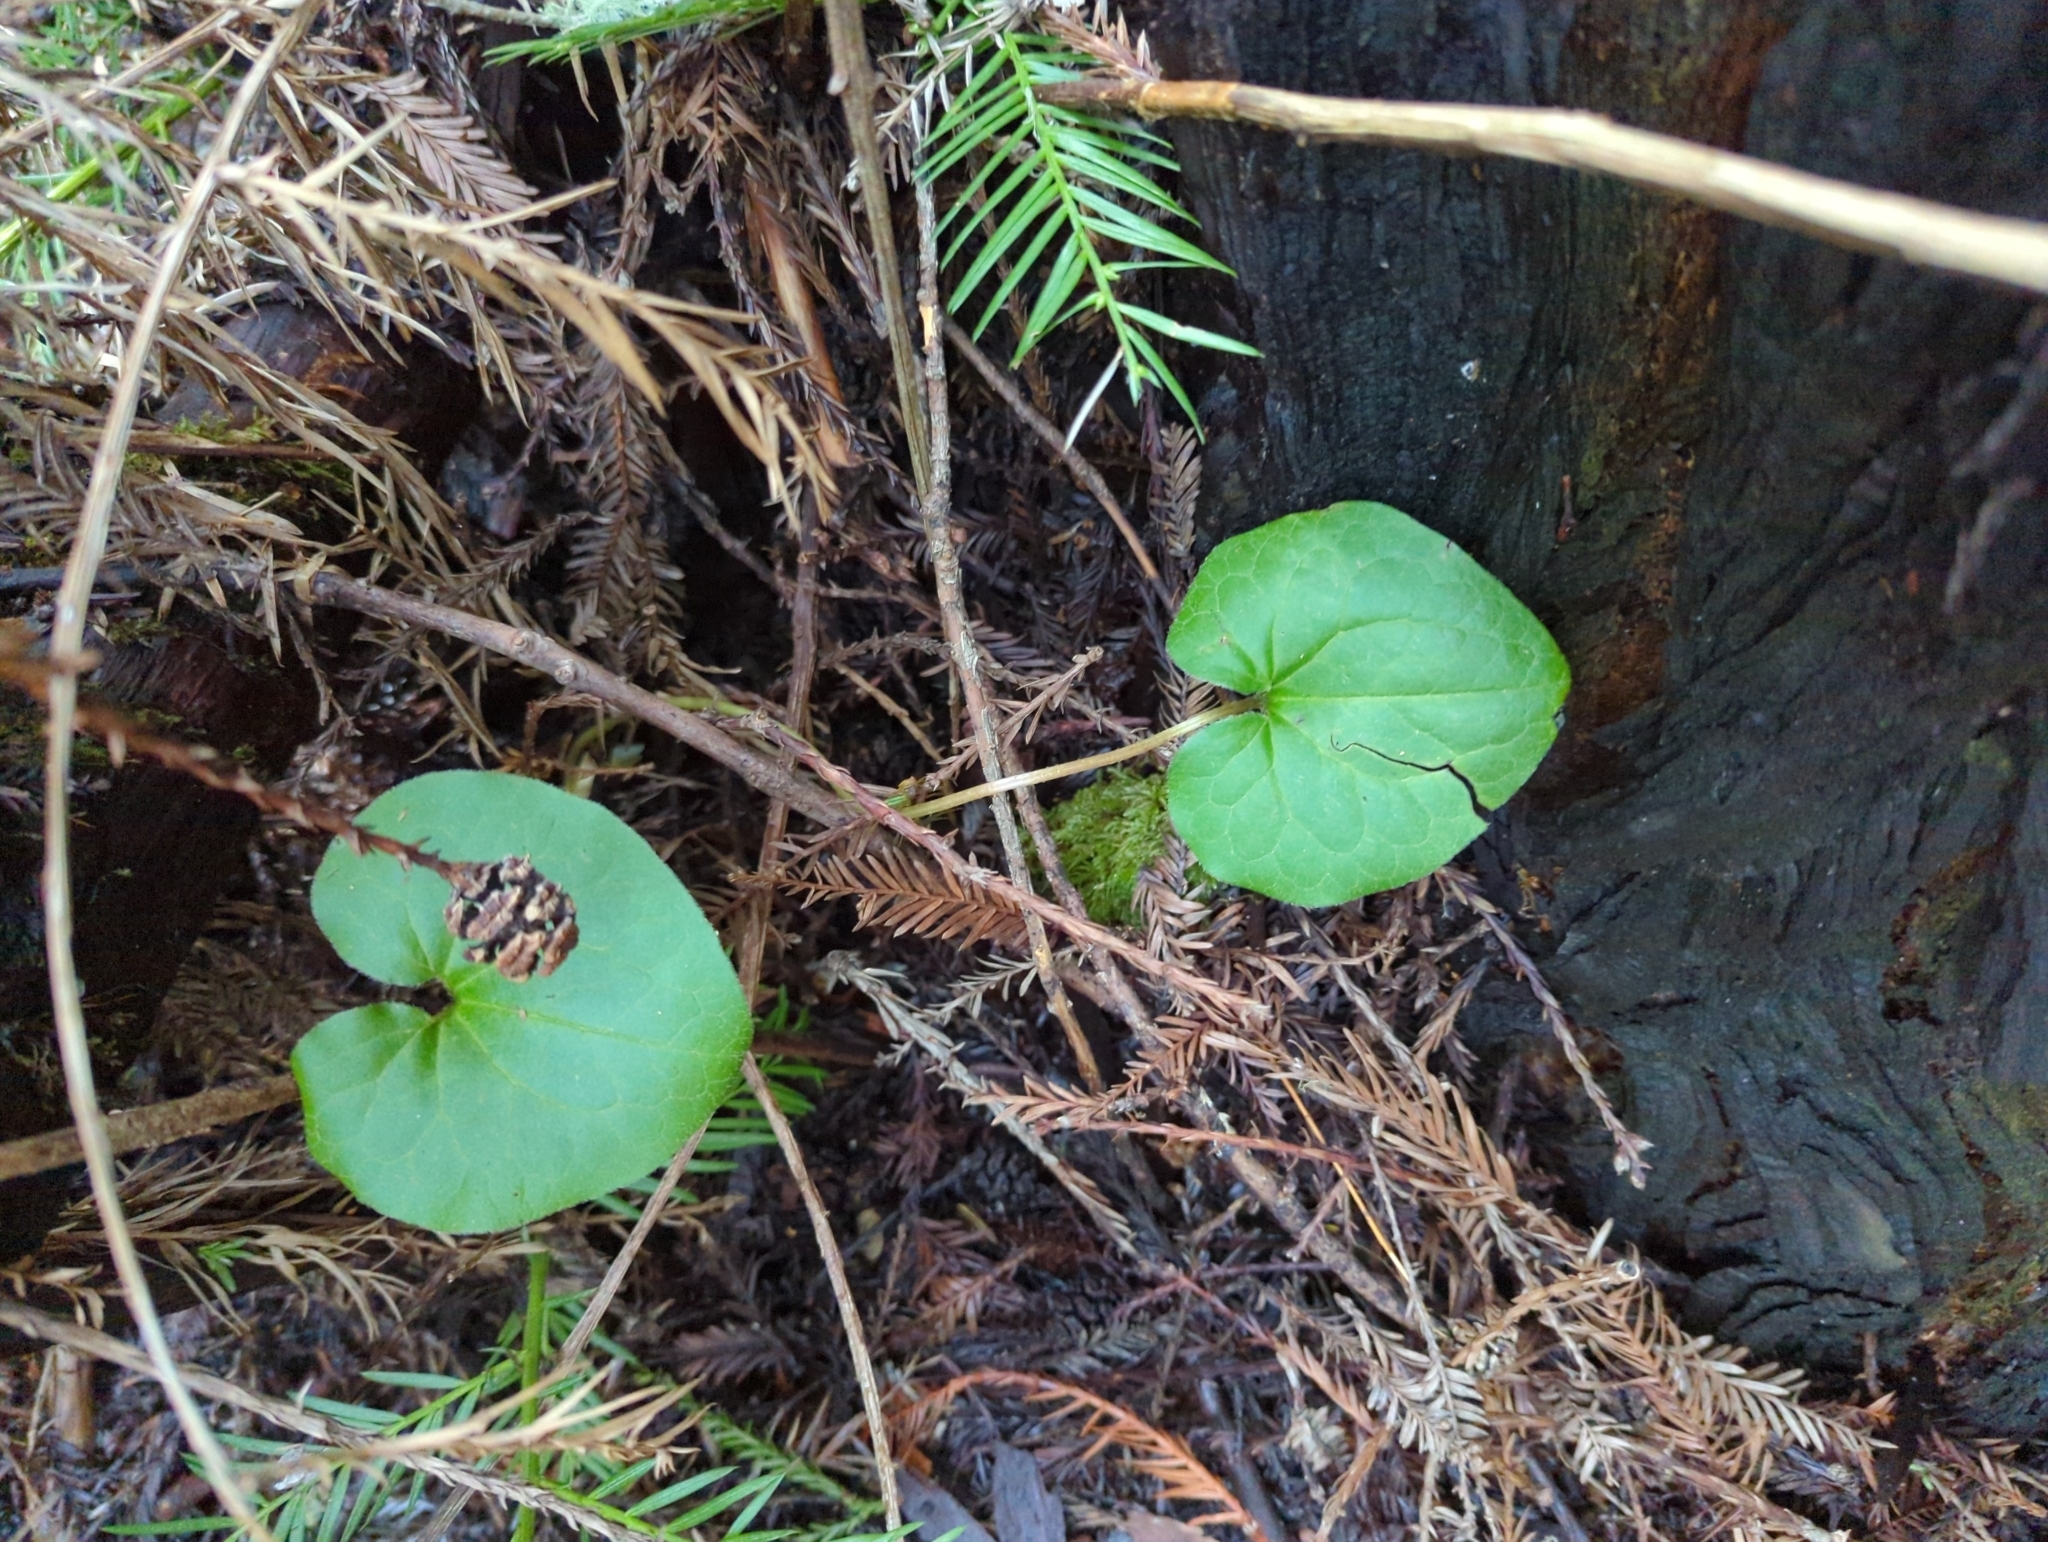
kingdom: Plantae
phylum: Tracheophyta
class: Magnoliopsida
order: Piperales
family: Aristolochiaceae
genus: Asarum
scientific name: Asarum caudatum
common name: Wild ginger
